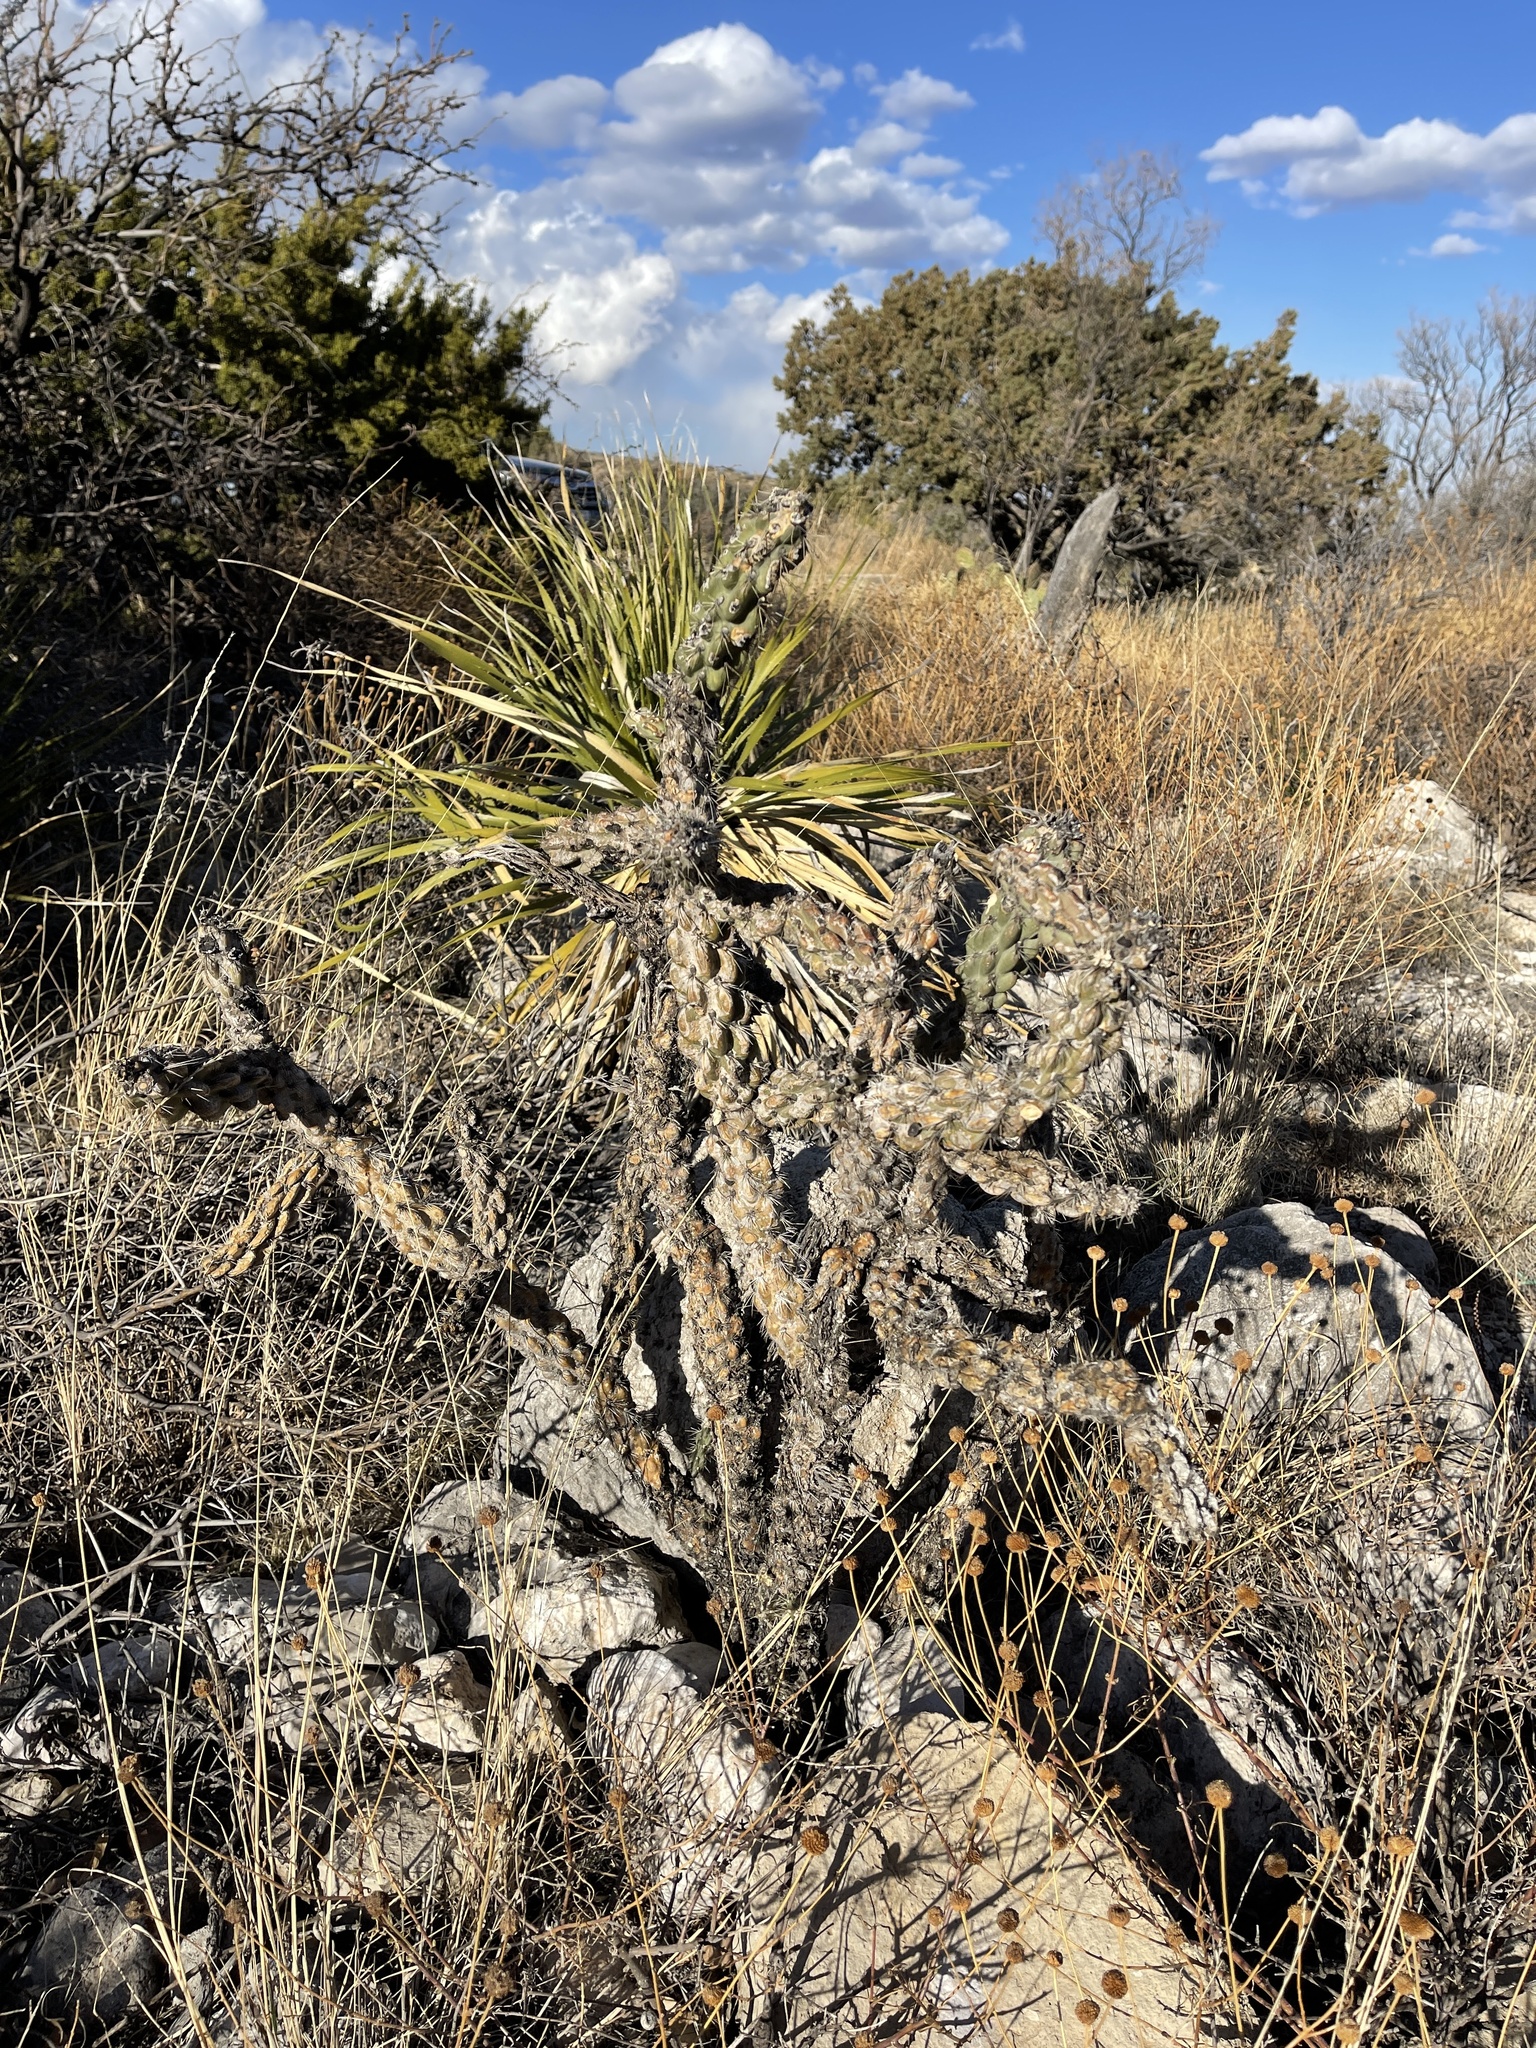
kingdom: Plantae
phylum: Tracheophyta
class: Magnoliopsida
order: Caryophyllales
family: Cactaceae
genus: Cylindropuntia
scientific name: Cylindropuntia imbricata
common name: Candelabrum cactus
